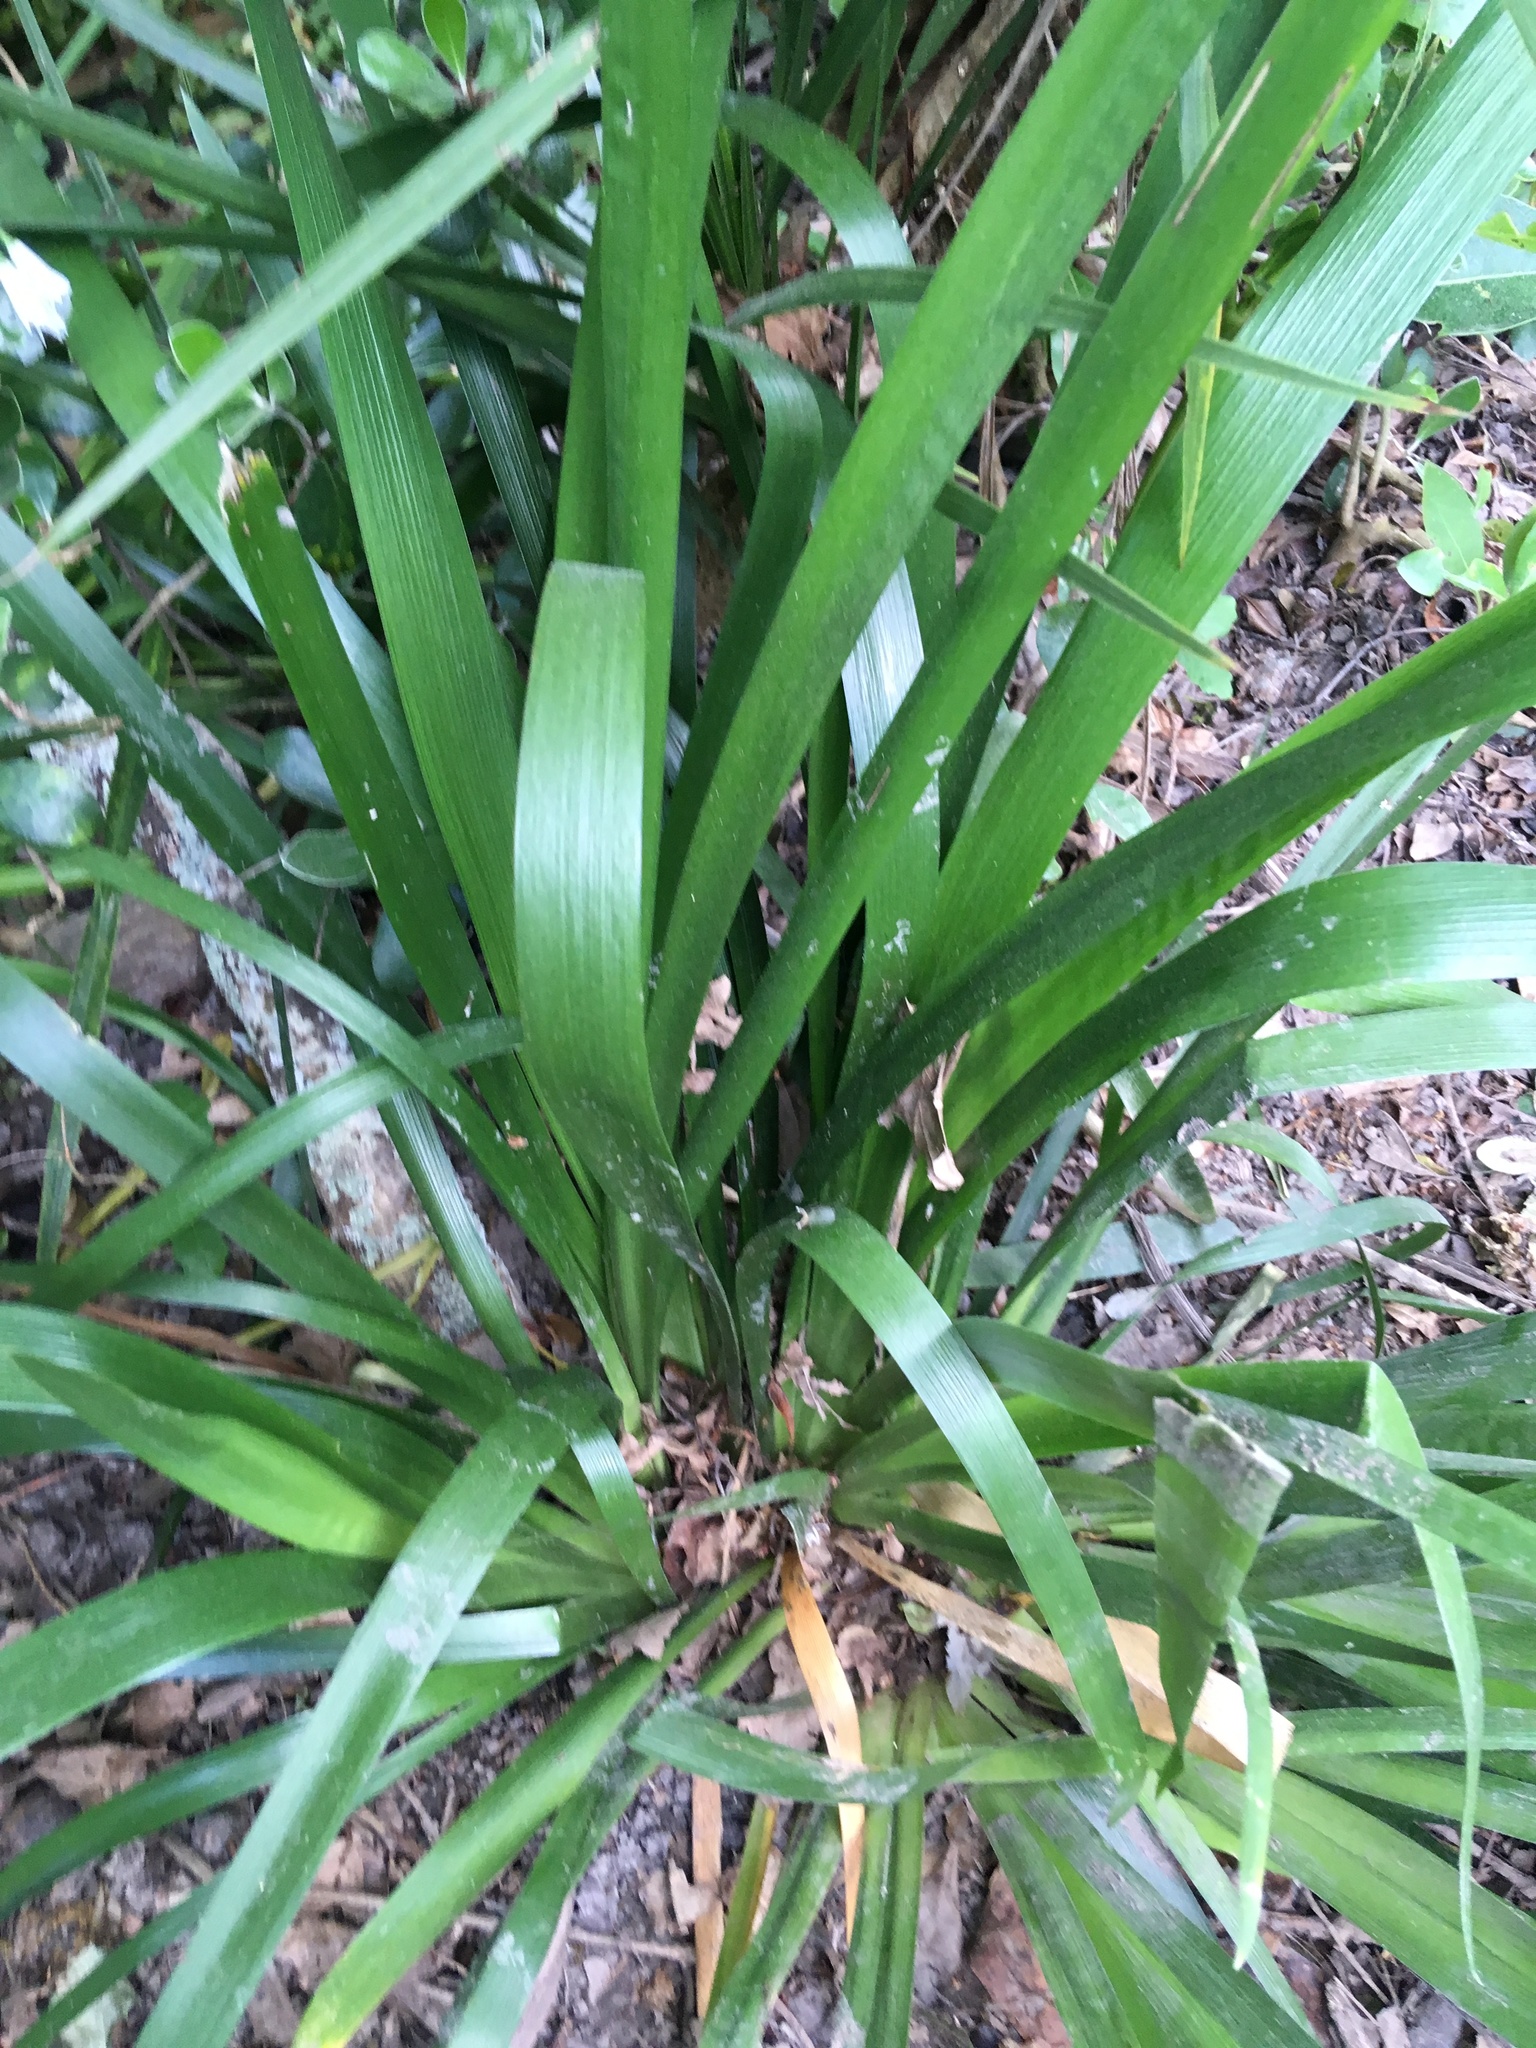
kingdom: Plantae
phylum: Tracheophyta
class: Liliopsida
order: Asparagales
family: Iridaceae
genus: Iris
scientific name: Iris foetidissima
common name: Stinking iris
